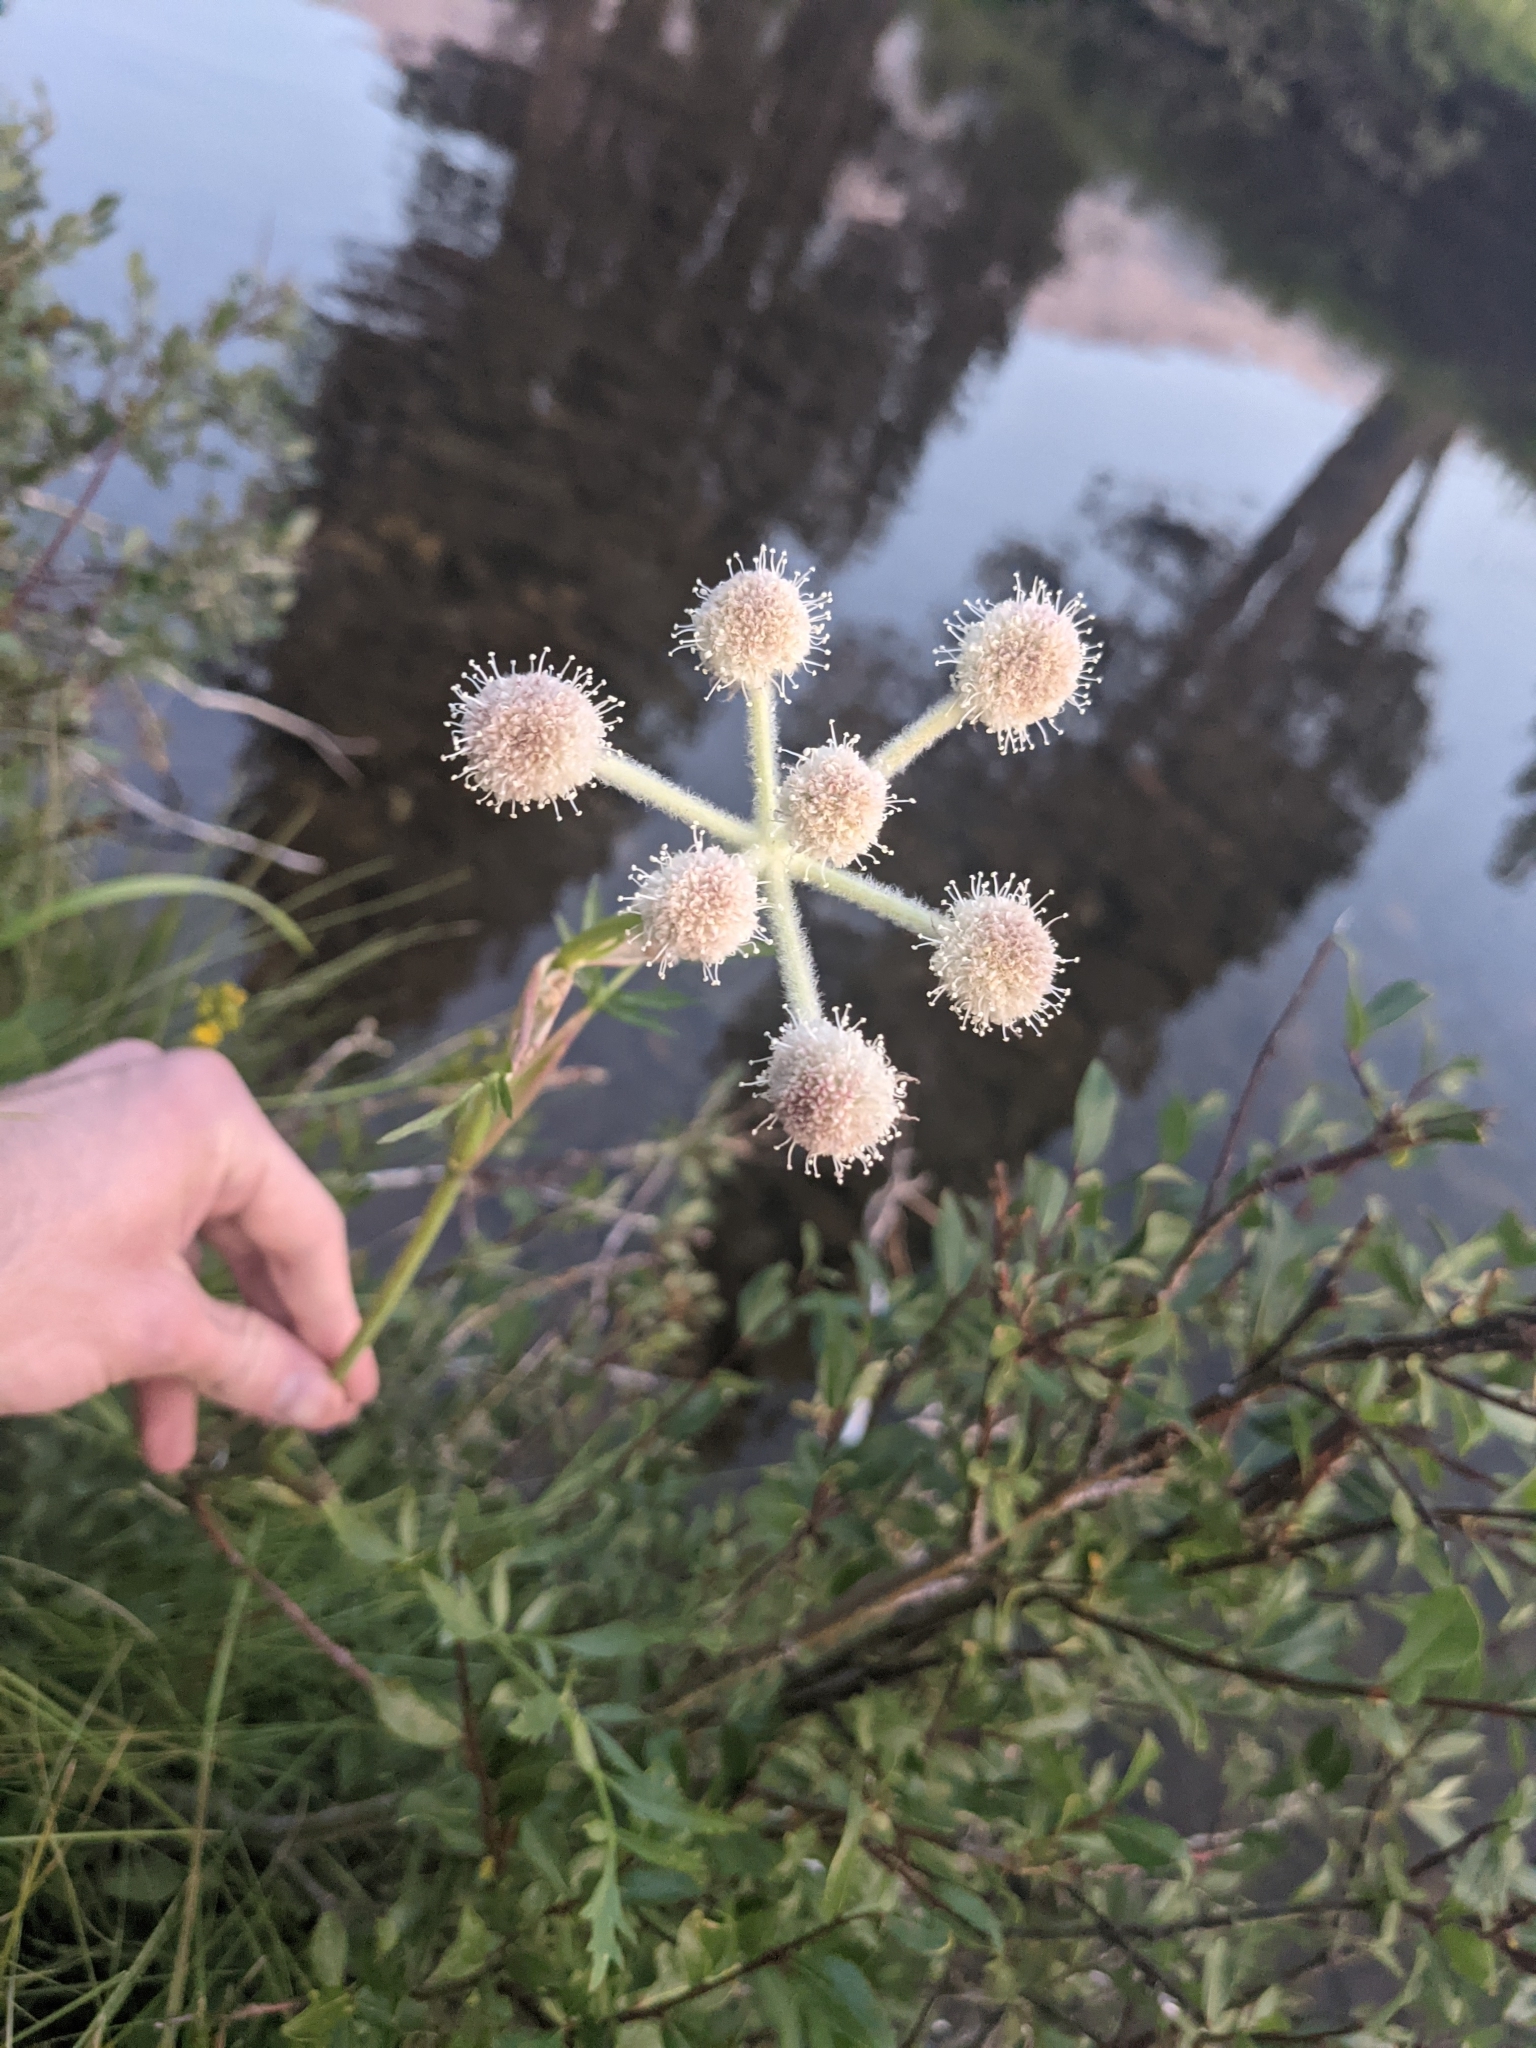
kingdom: Plantae
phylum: Tracheophyta
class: Magnoliopsida
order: Apiales
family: Apiaceae
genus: Angelica
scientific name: Angelica capitellata
